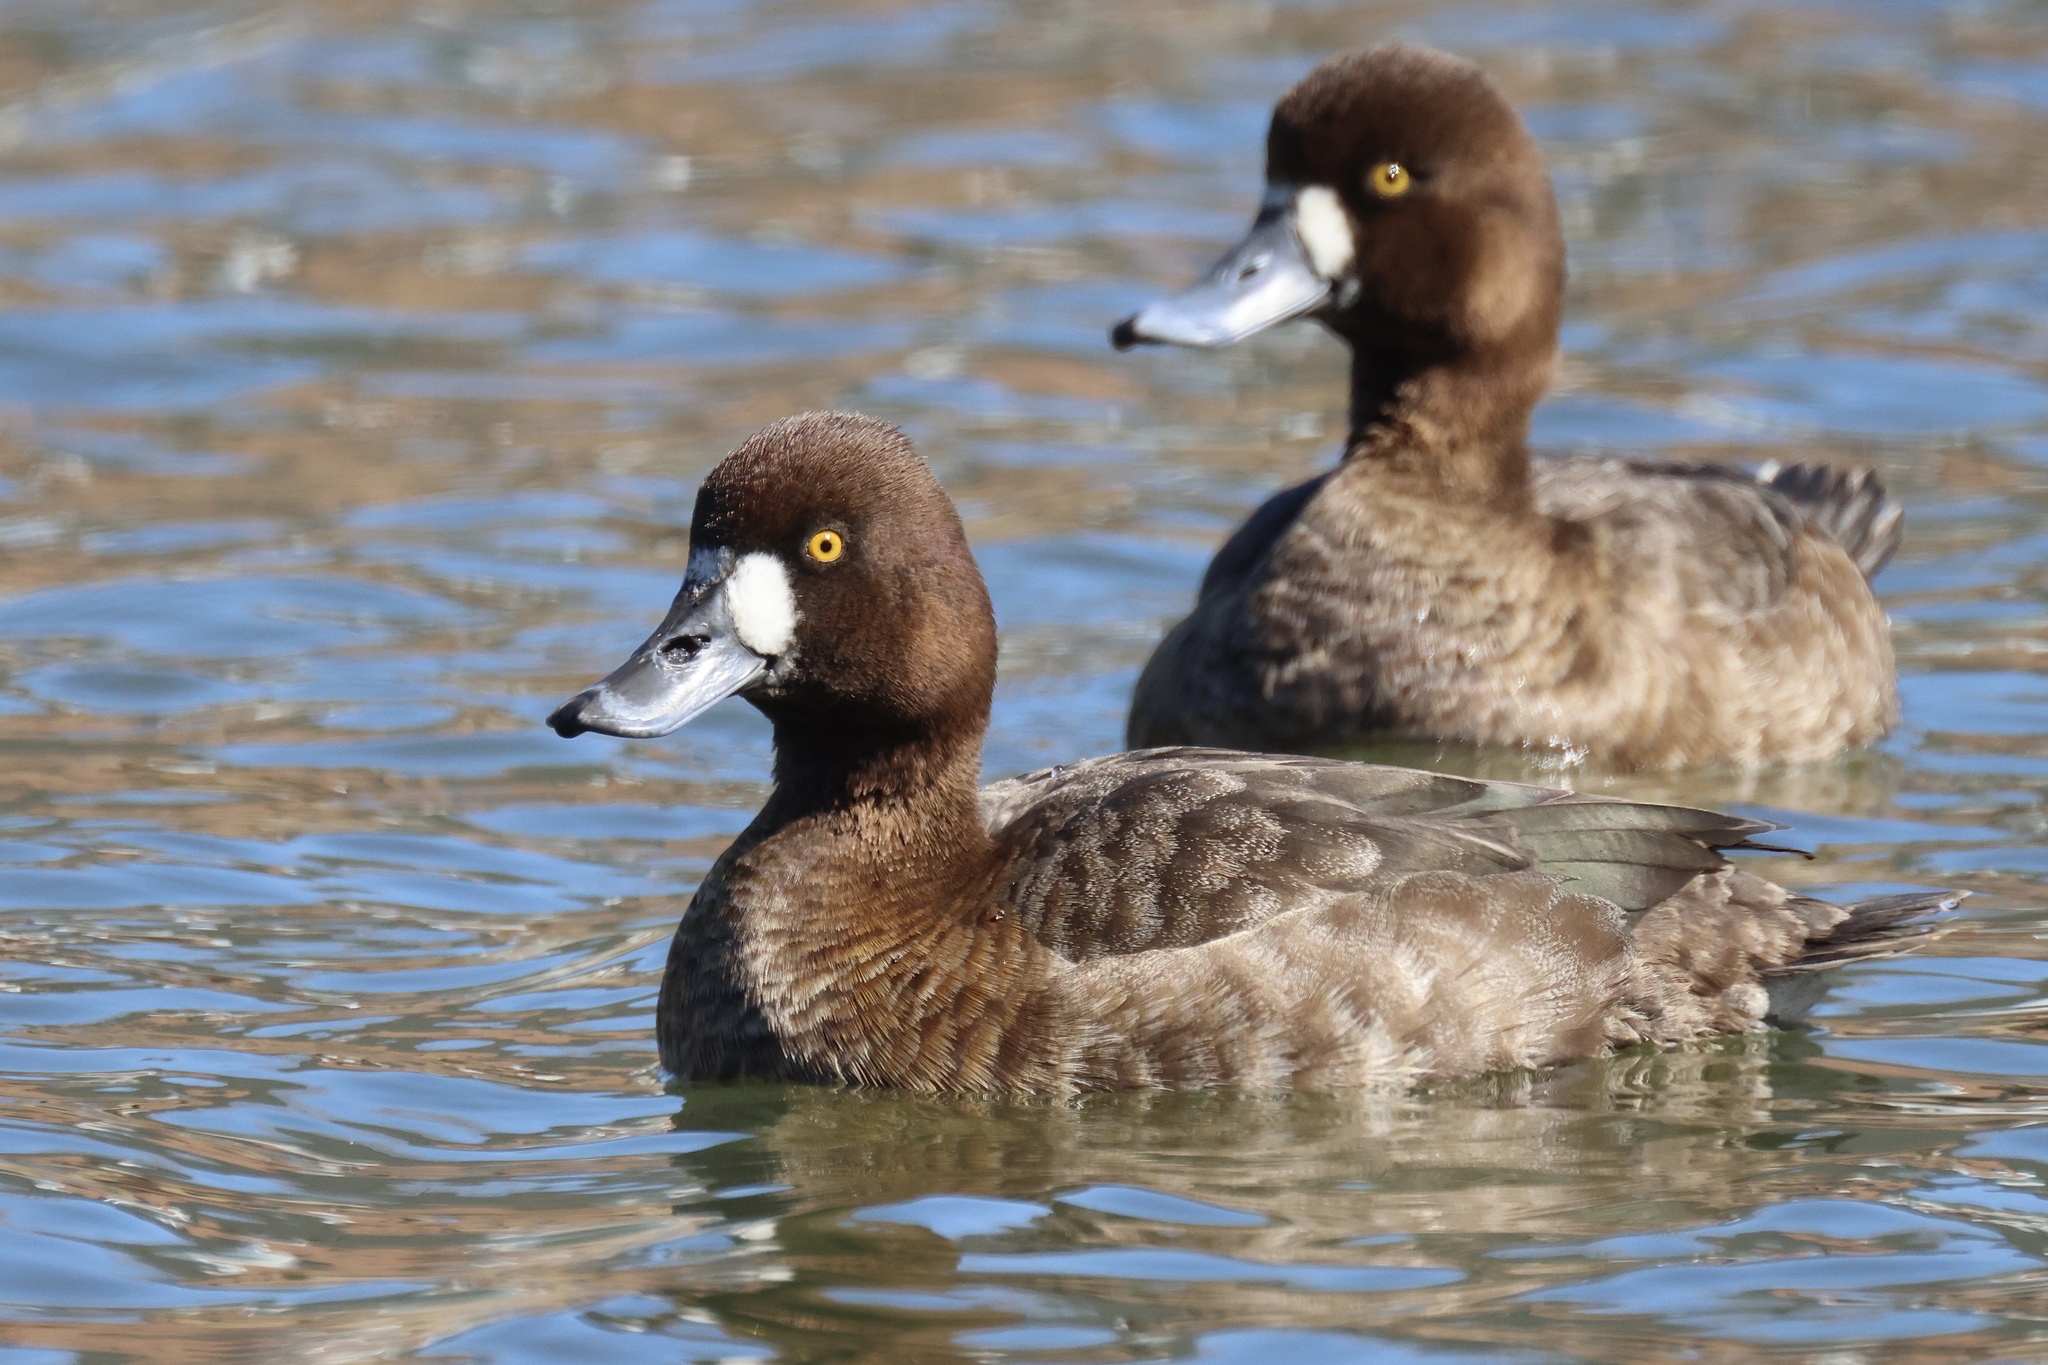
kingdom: Animalia
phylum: Chordata
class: Aves
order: Anseriformes
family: Anatidae
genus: Aythya
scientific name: Aythya affinis
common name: Lesser scaup
